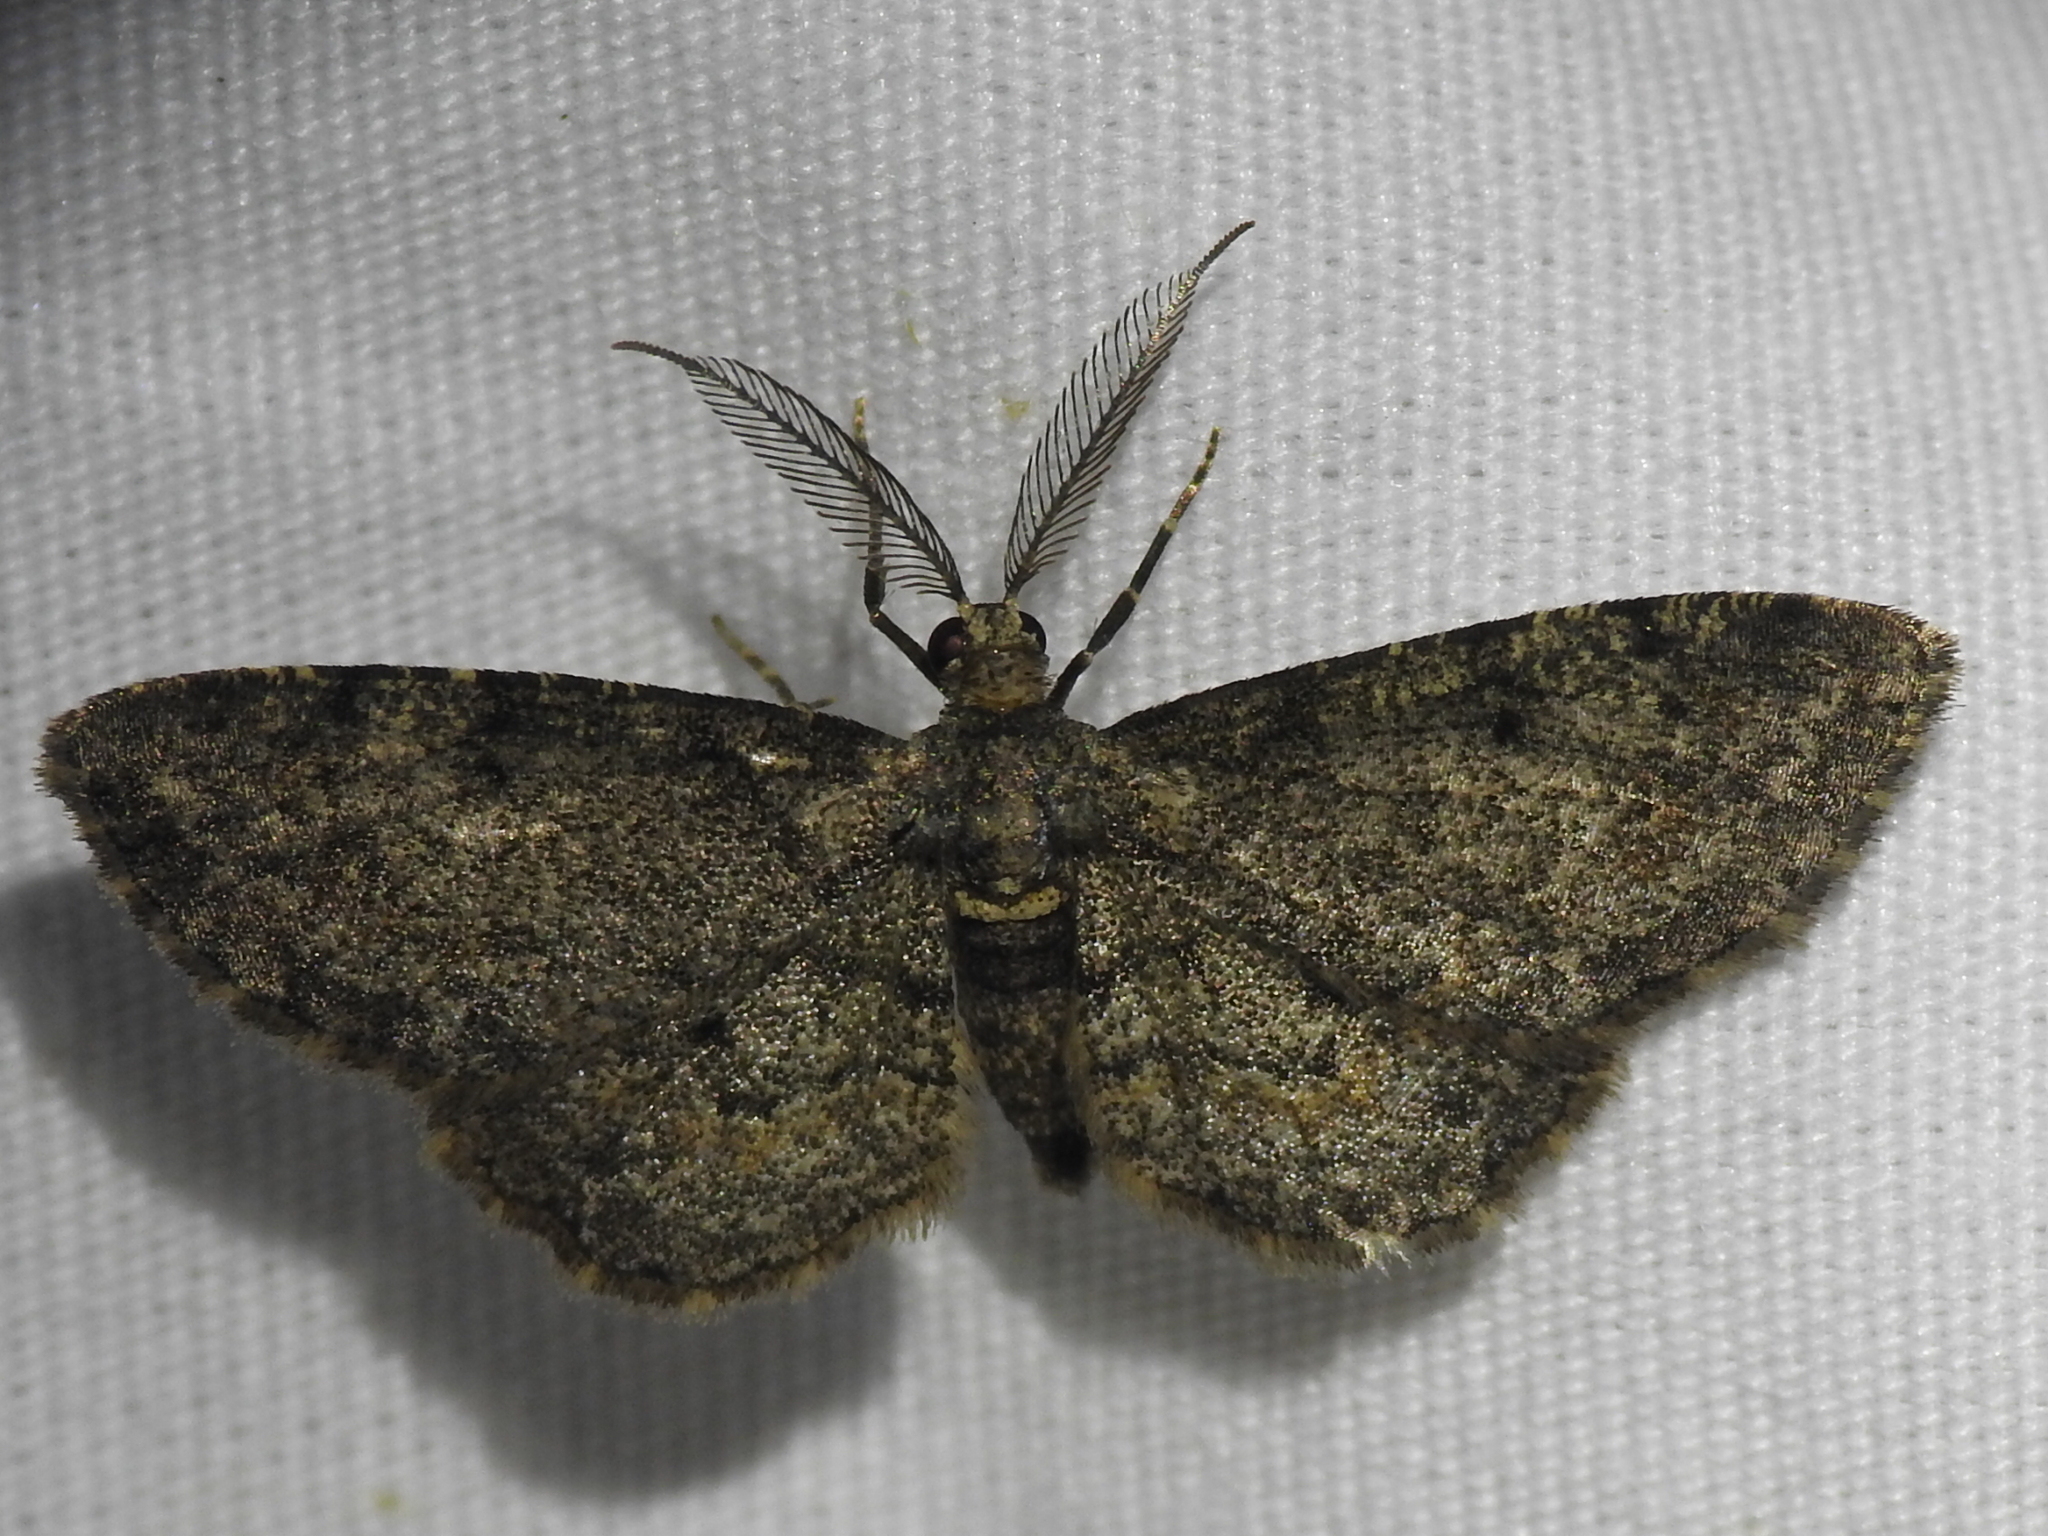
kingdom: Animalia
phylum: Arthropoda
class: Insecta
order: Lepidoptera
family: Geometridae
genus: Glenoides
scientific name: Glenoides texanaria
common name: Texas gray
